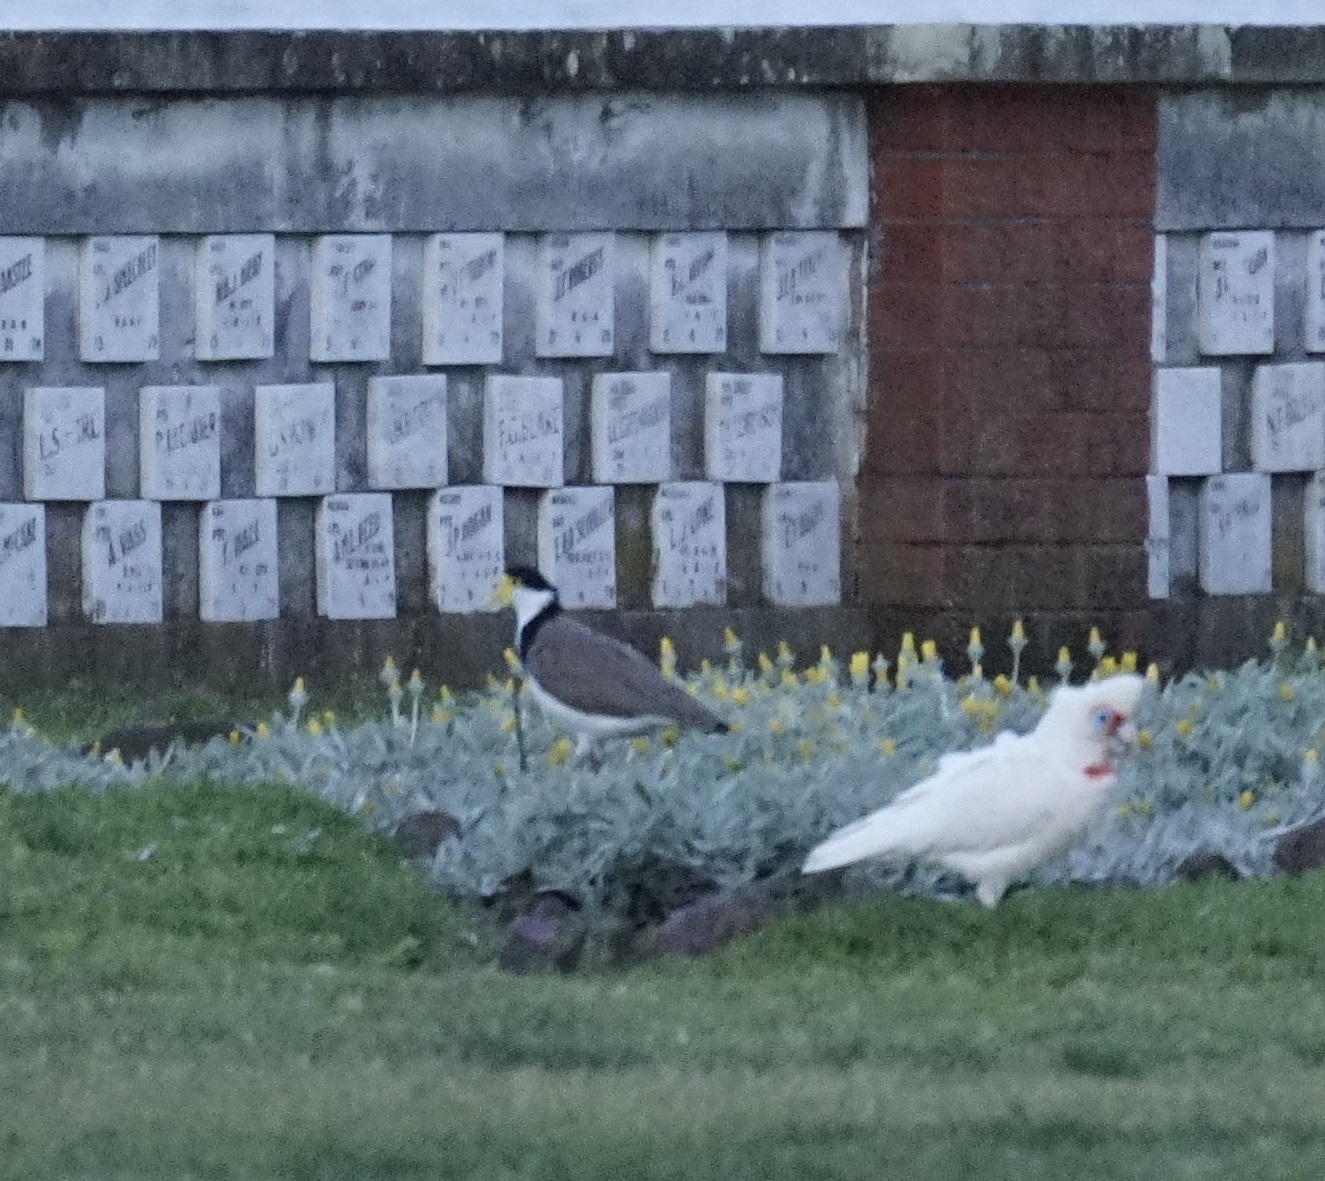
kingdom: Animalia
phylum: Chordata
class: Aves
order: Charadriiformes
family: Charadriidae
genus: Vanellus
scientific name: Vanellus miles
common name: Masked lapwing
